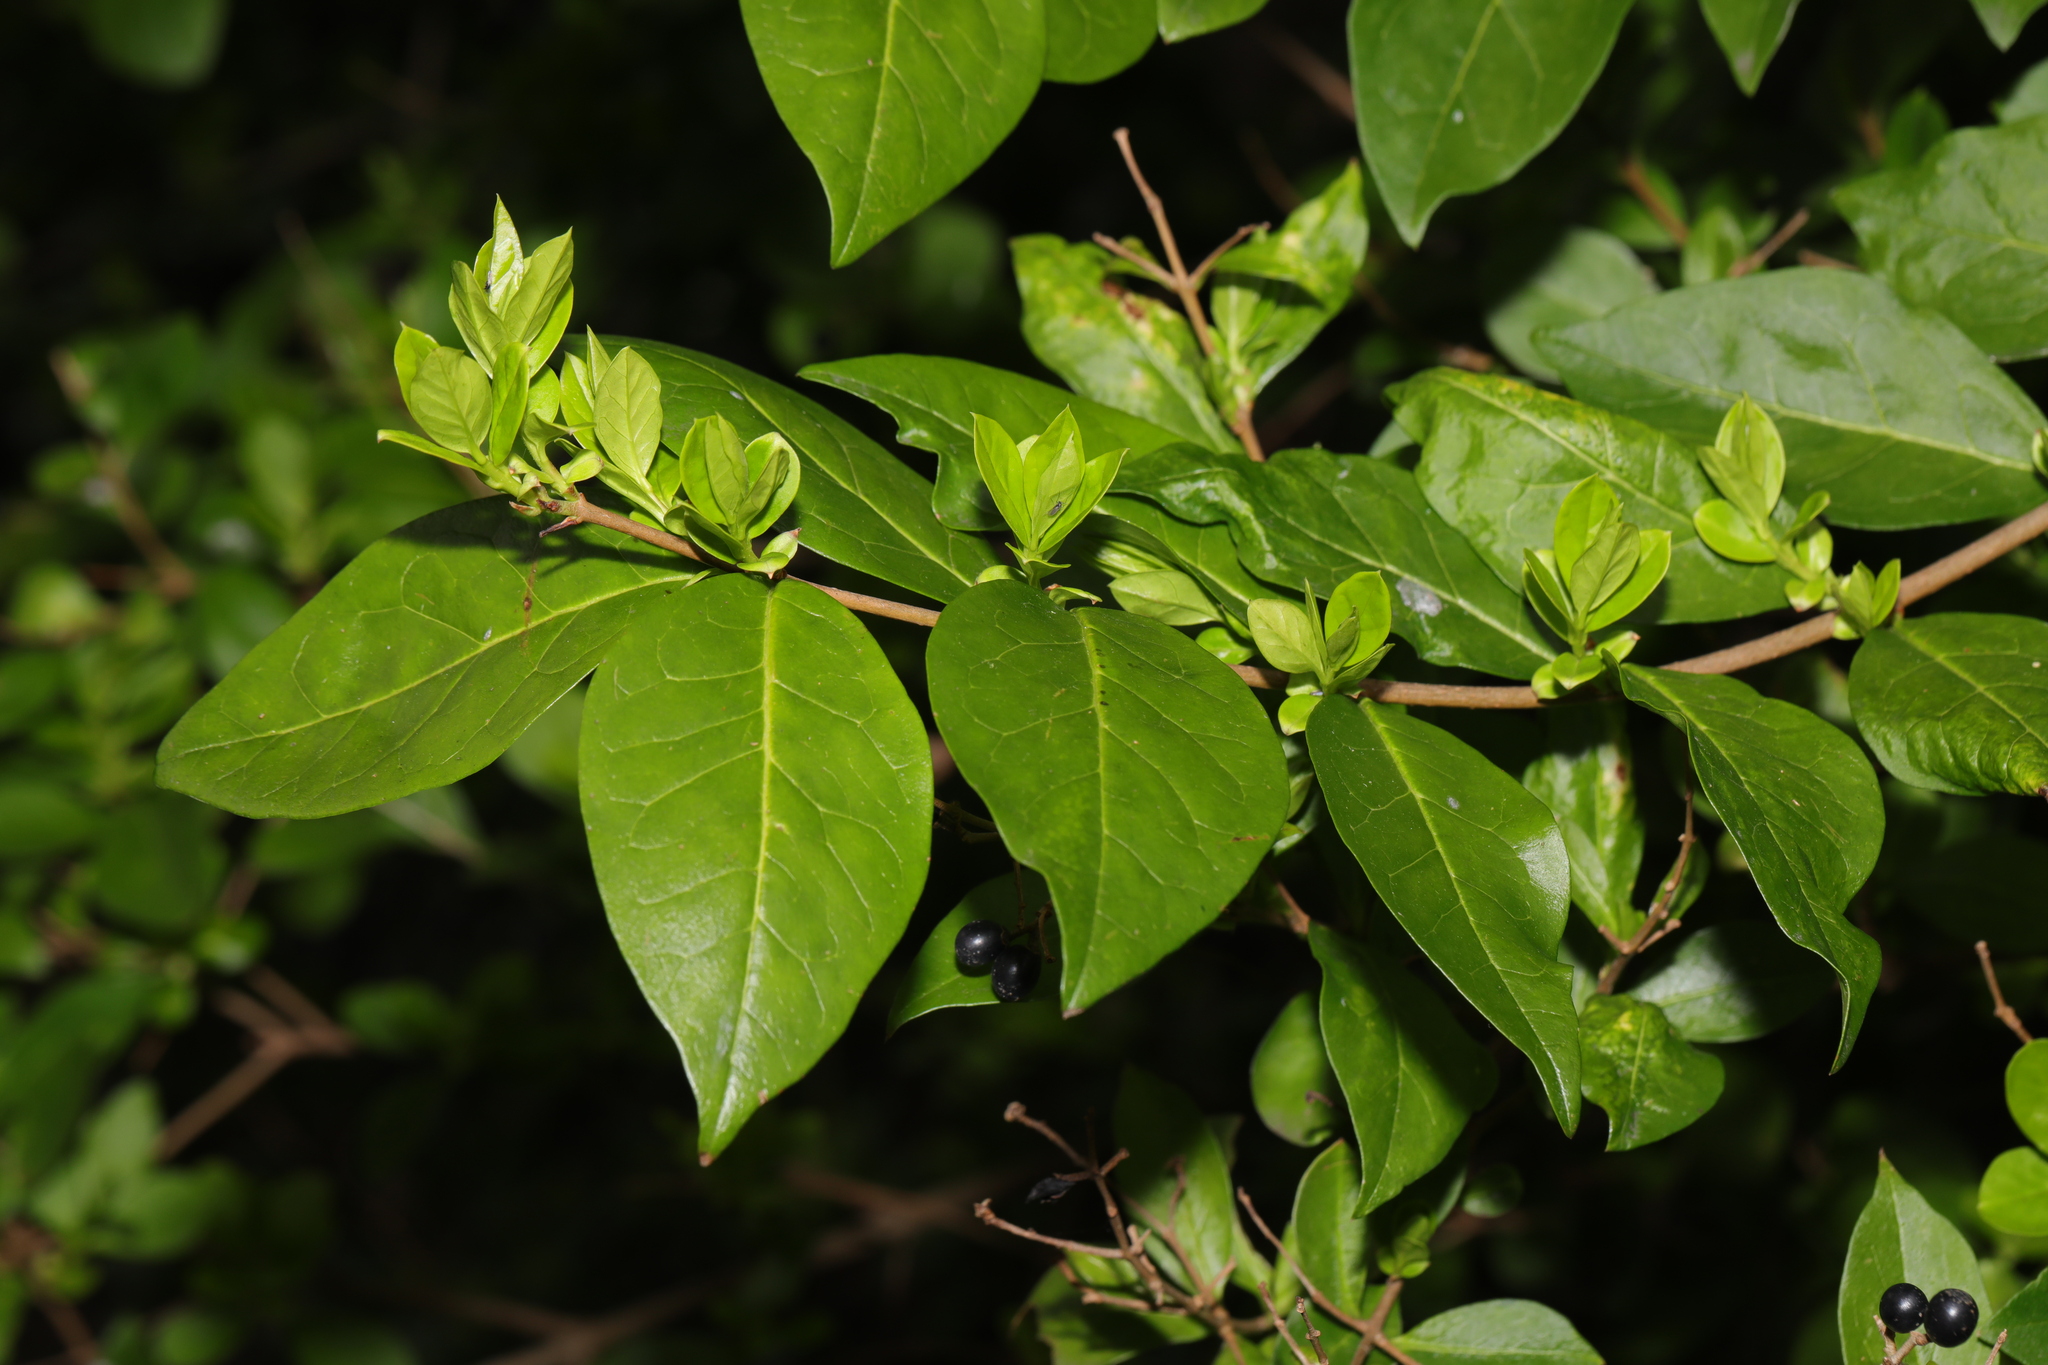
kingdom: Plantae
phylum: Tracheophyta
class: Magnoliopsida
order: Lamiales
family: Oleaceae
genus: Ligustrum
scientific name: Ligustrum ovalifolium
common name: California privet
